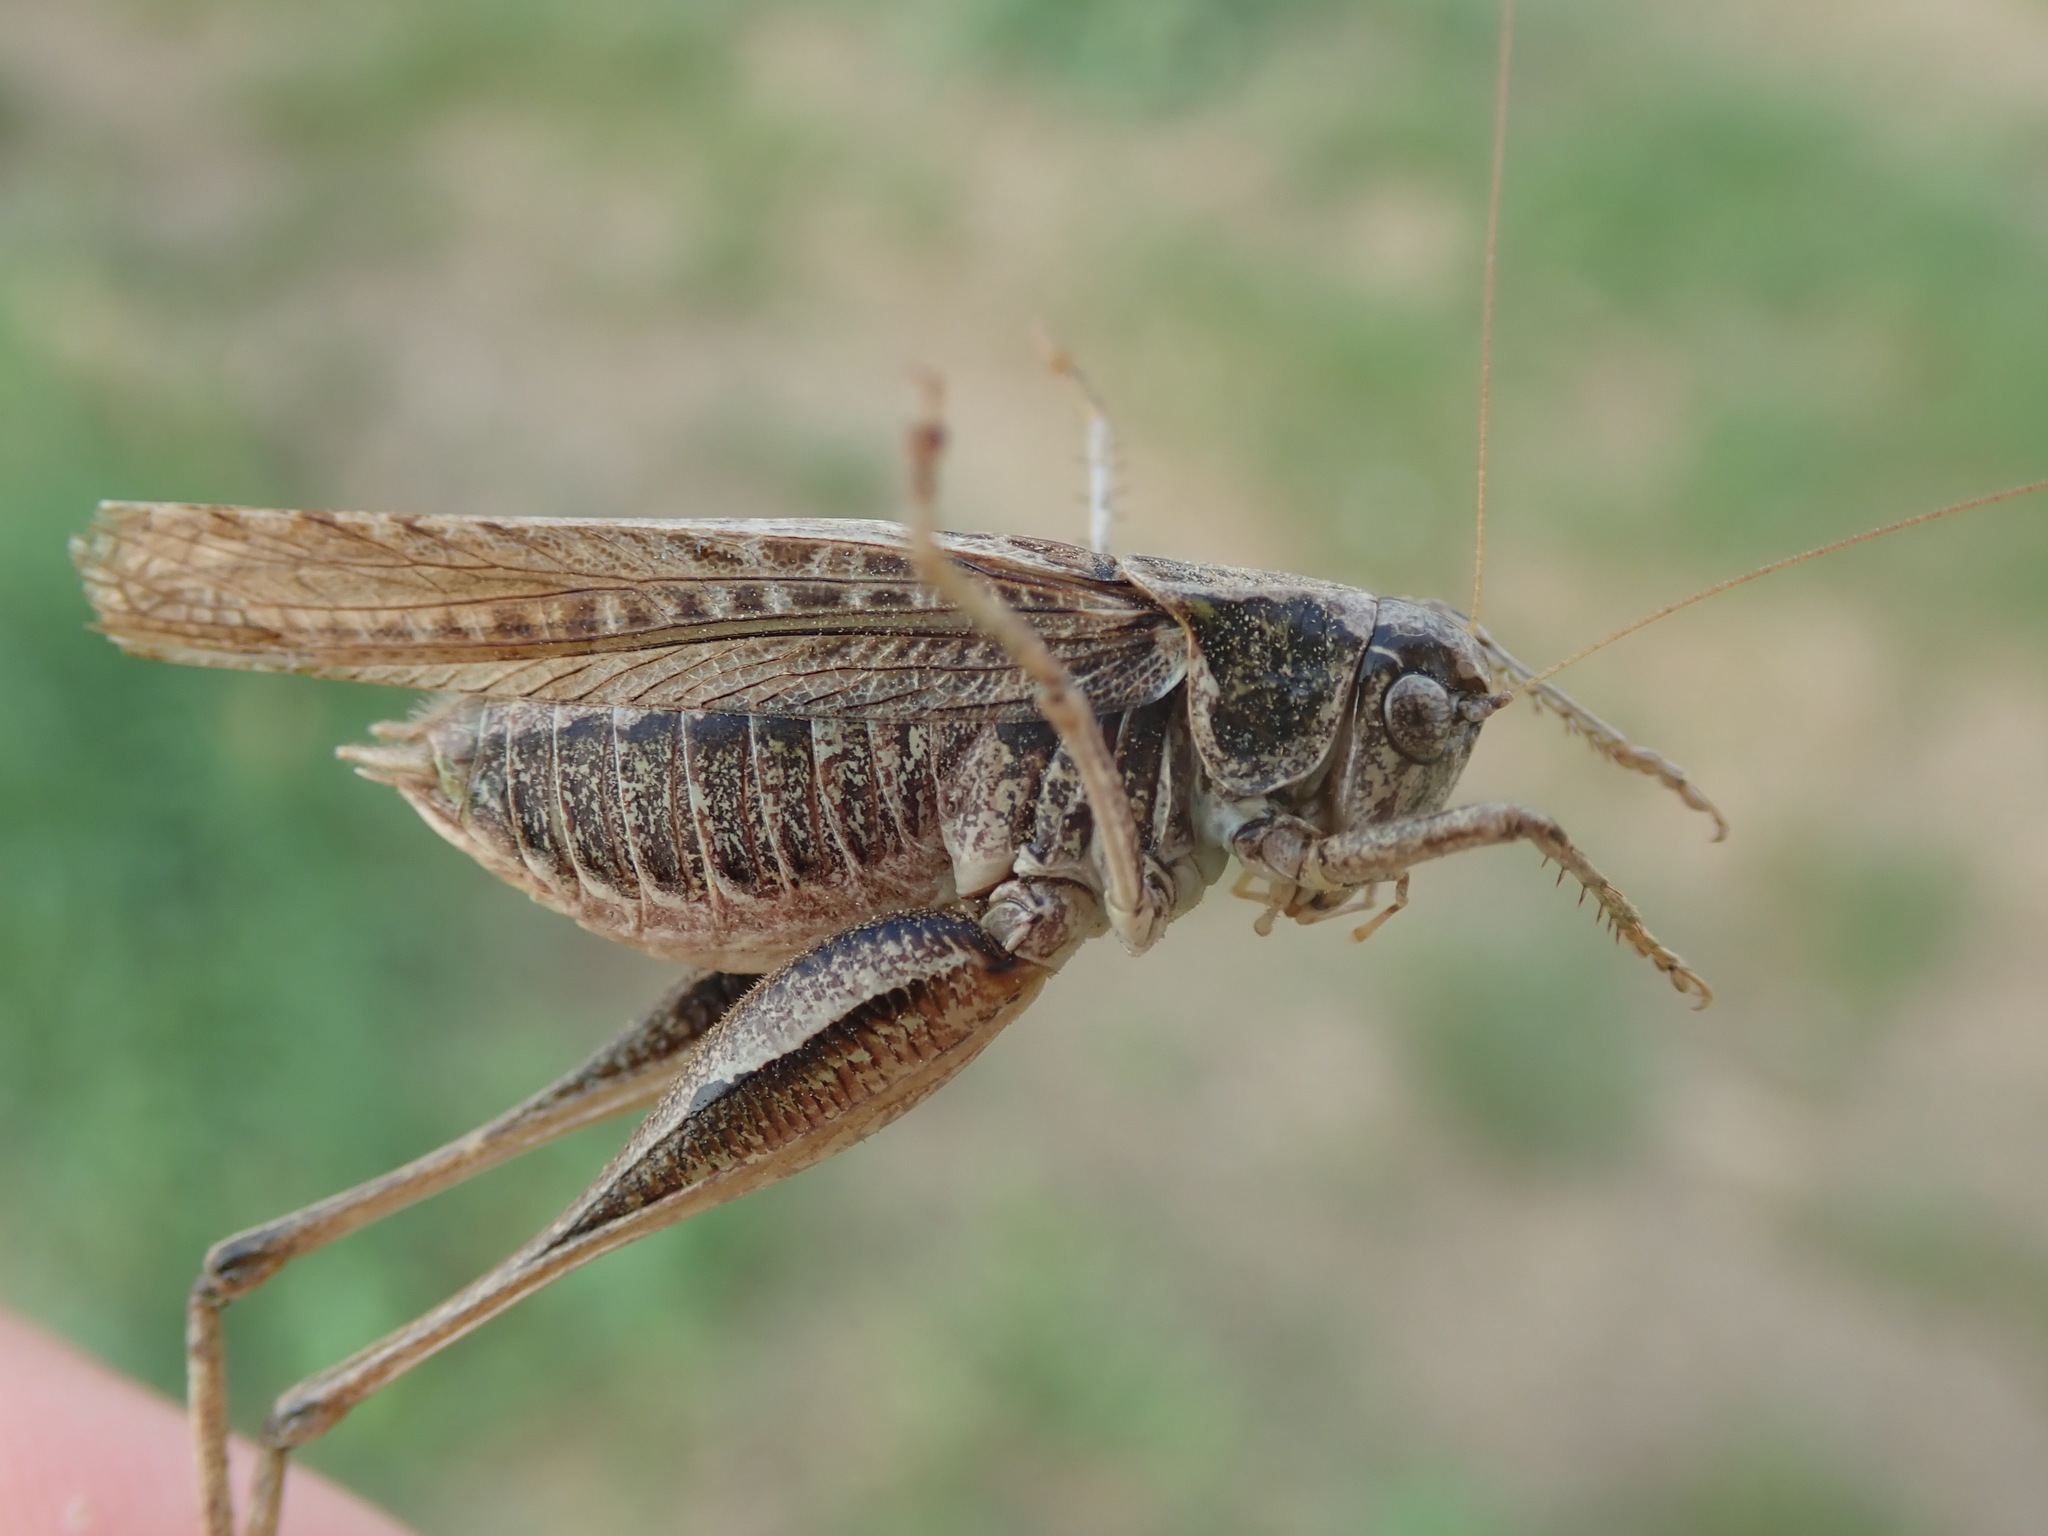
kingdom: Animalia
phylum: Arthropoda
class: Insecta
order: Orthoptera
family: Tettigoniidae
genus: Platycleis
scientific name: Platycleis albopunctata
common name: Grey bush-cricket
